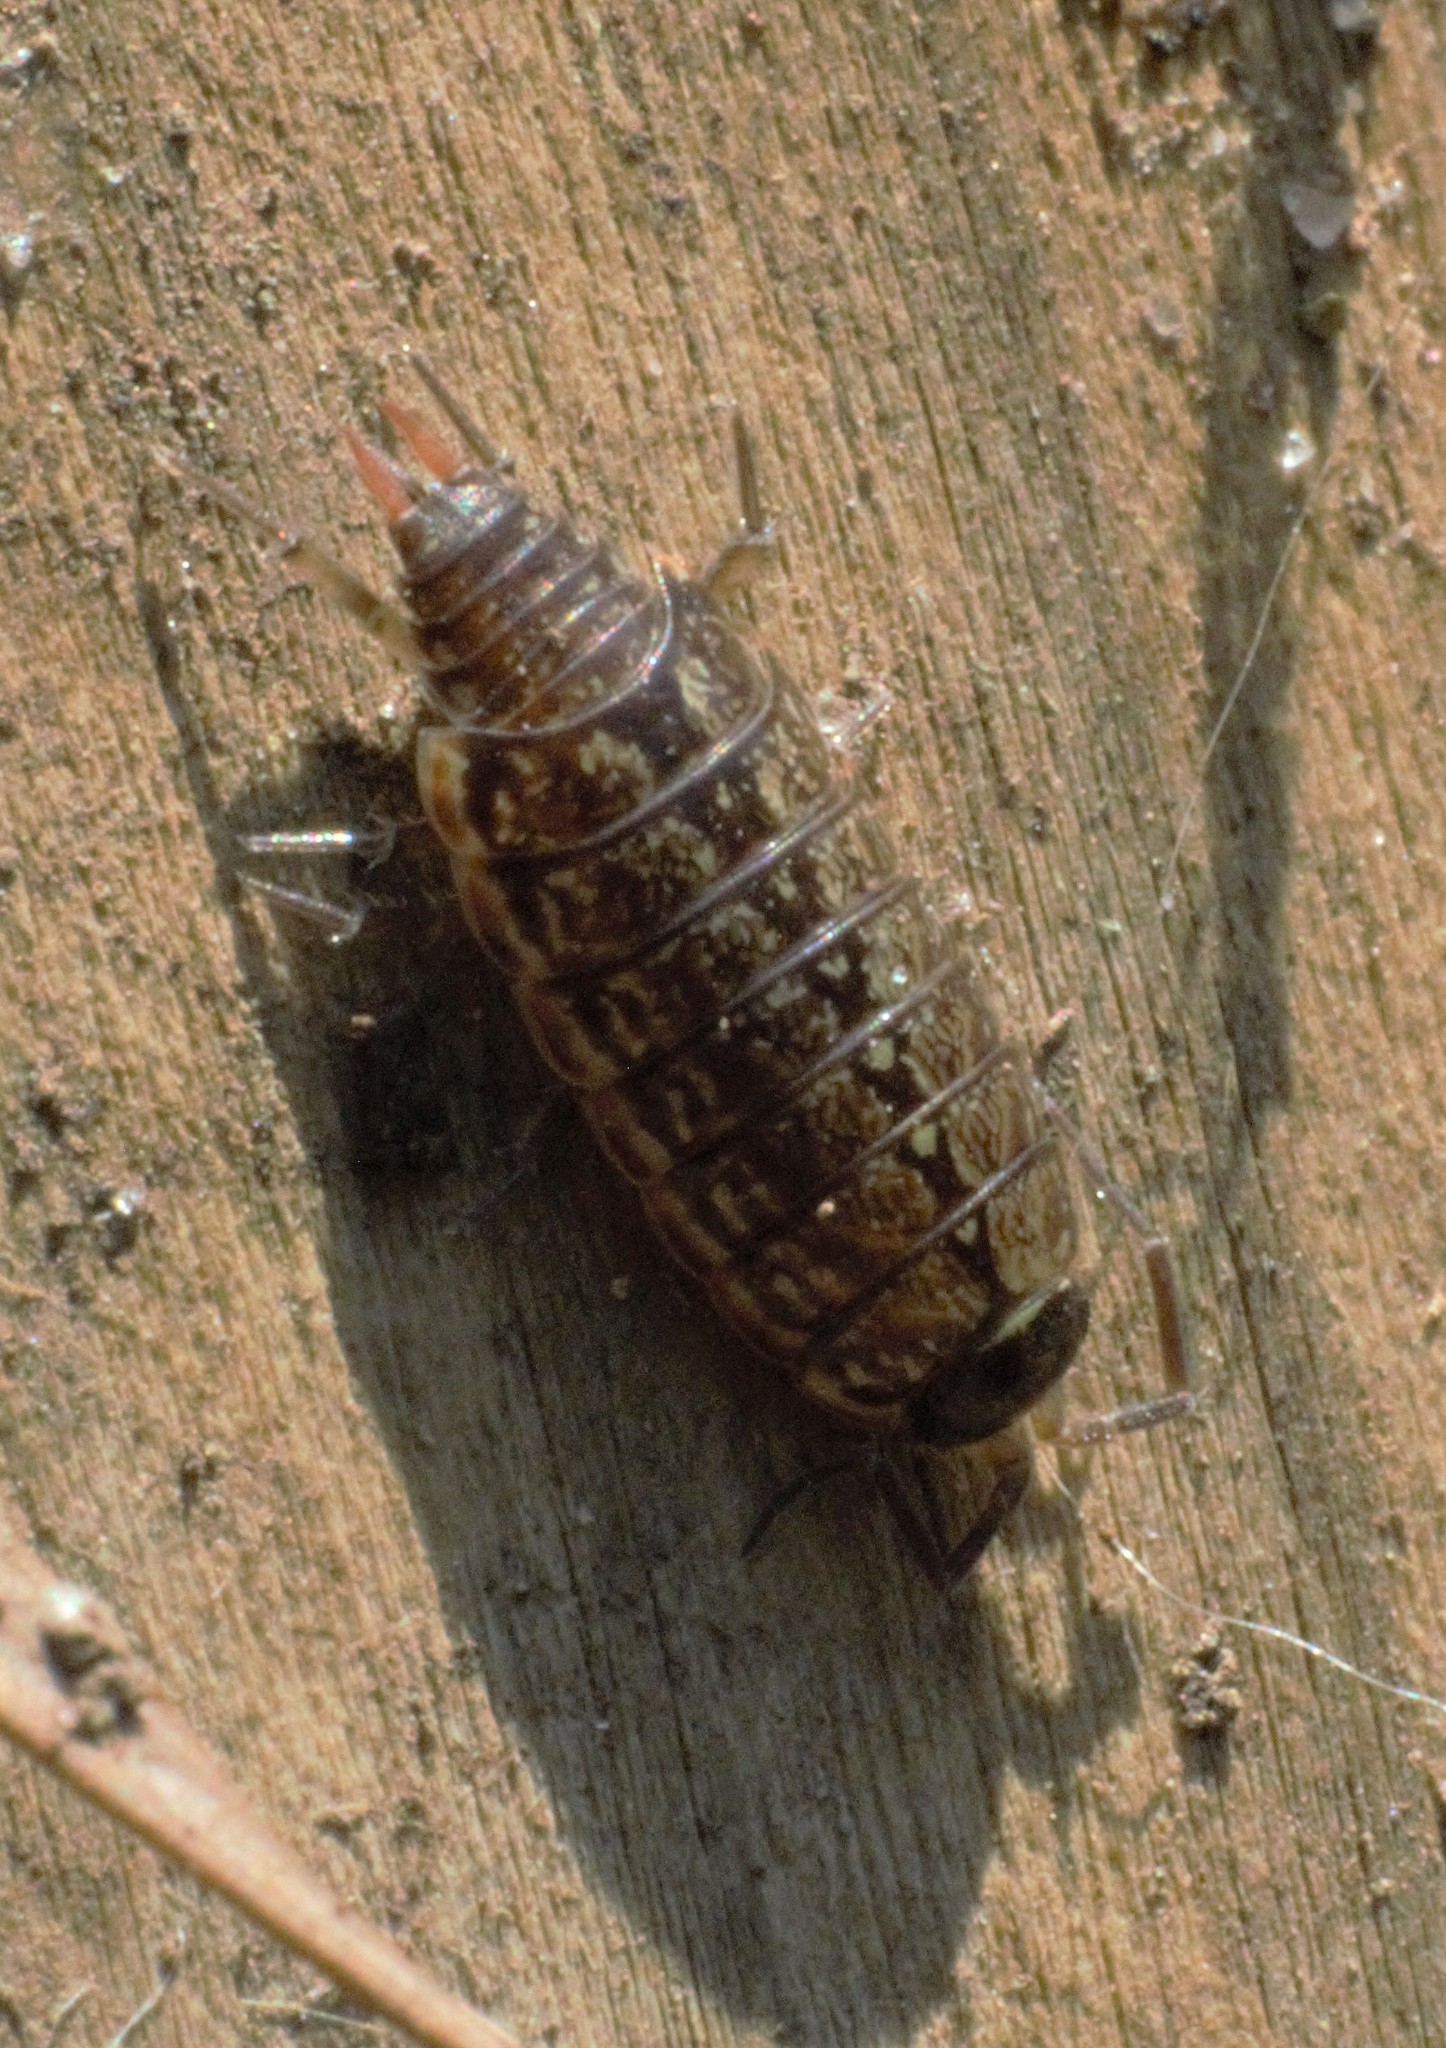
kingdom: Animalia
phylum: Arthropoda
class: Malacostraca
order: Isopoda
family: Philosciidae
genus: Philoscia
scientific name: Philoscia muscorum
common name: Common striped woodlouse
